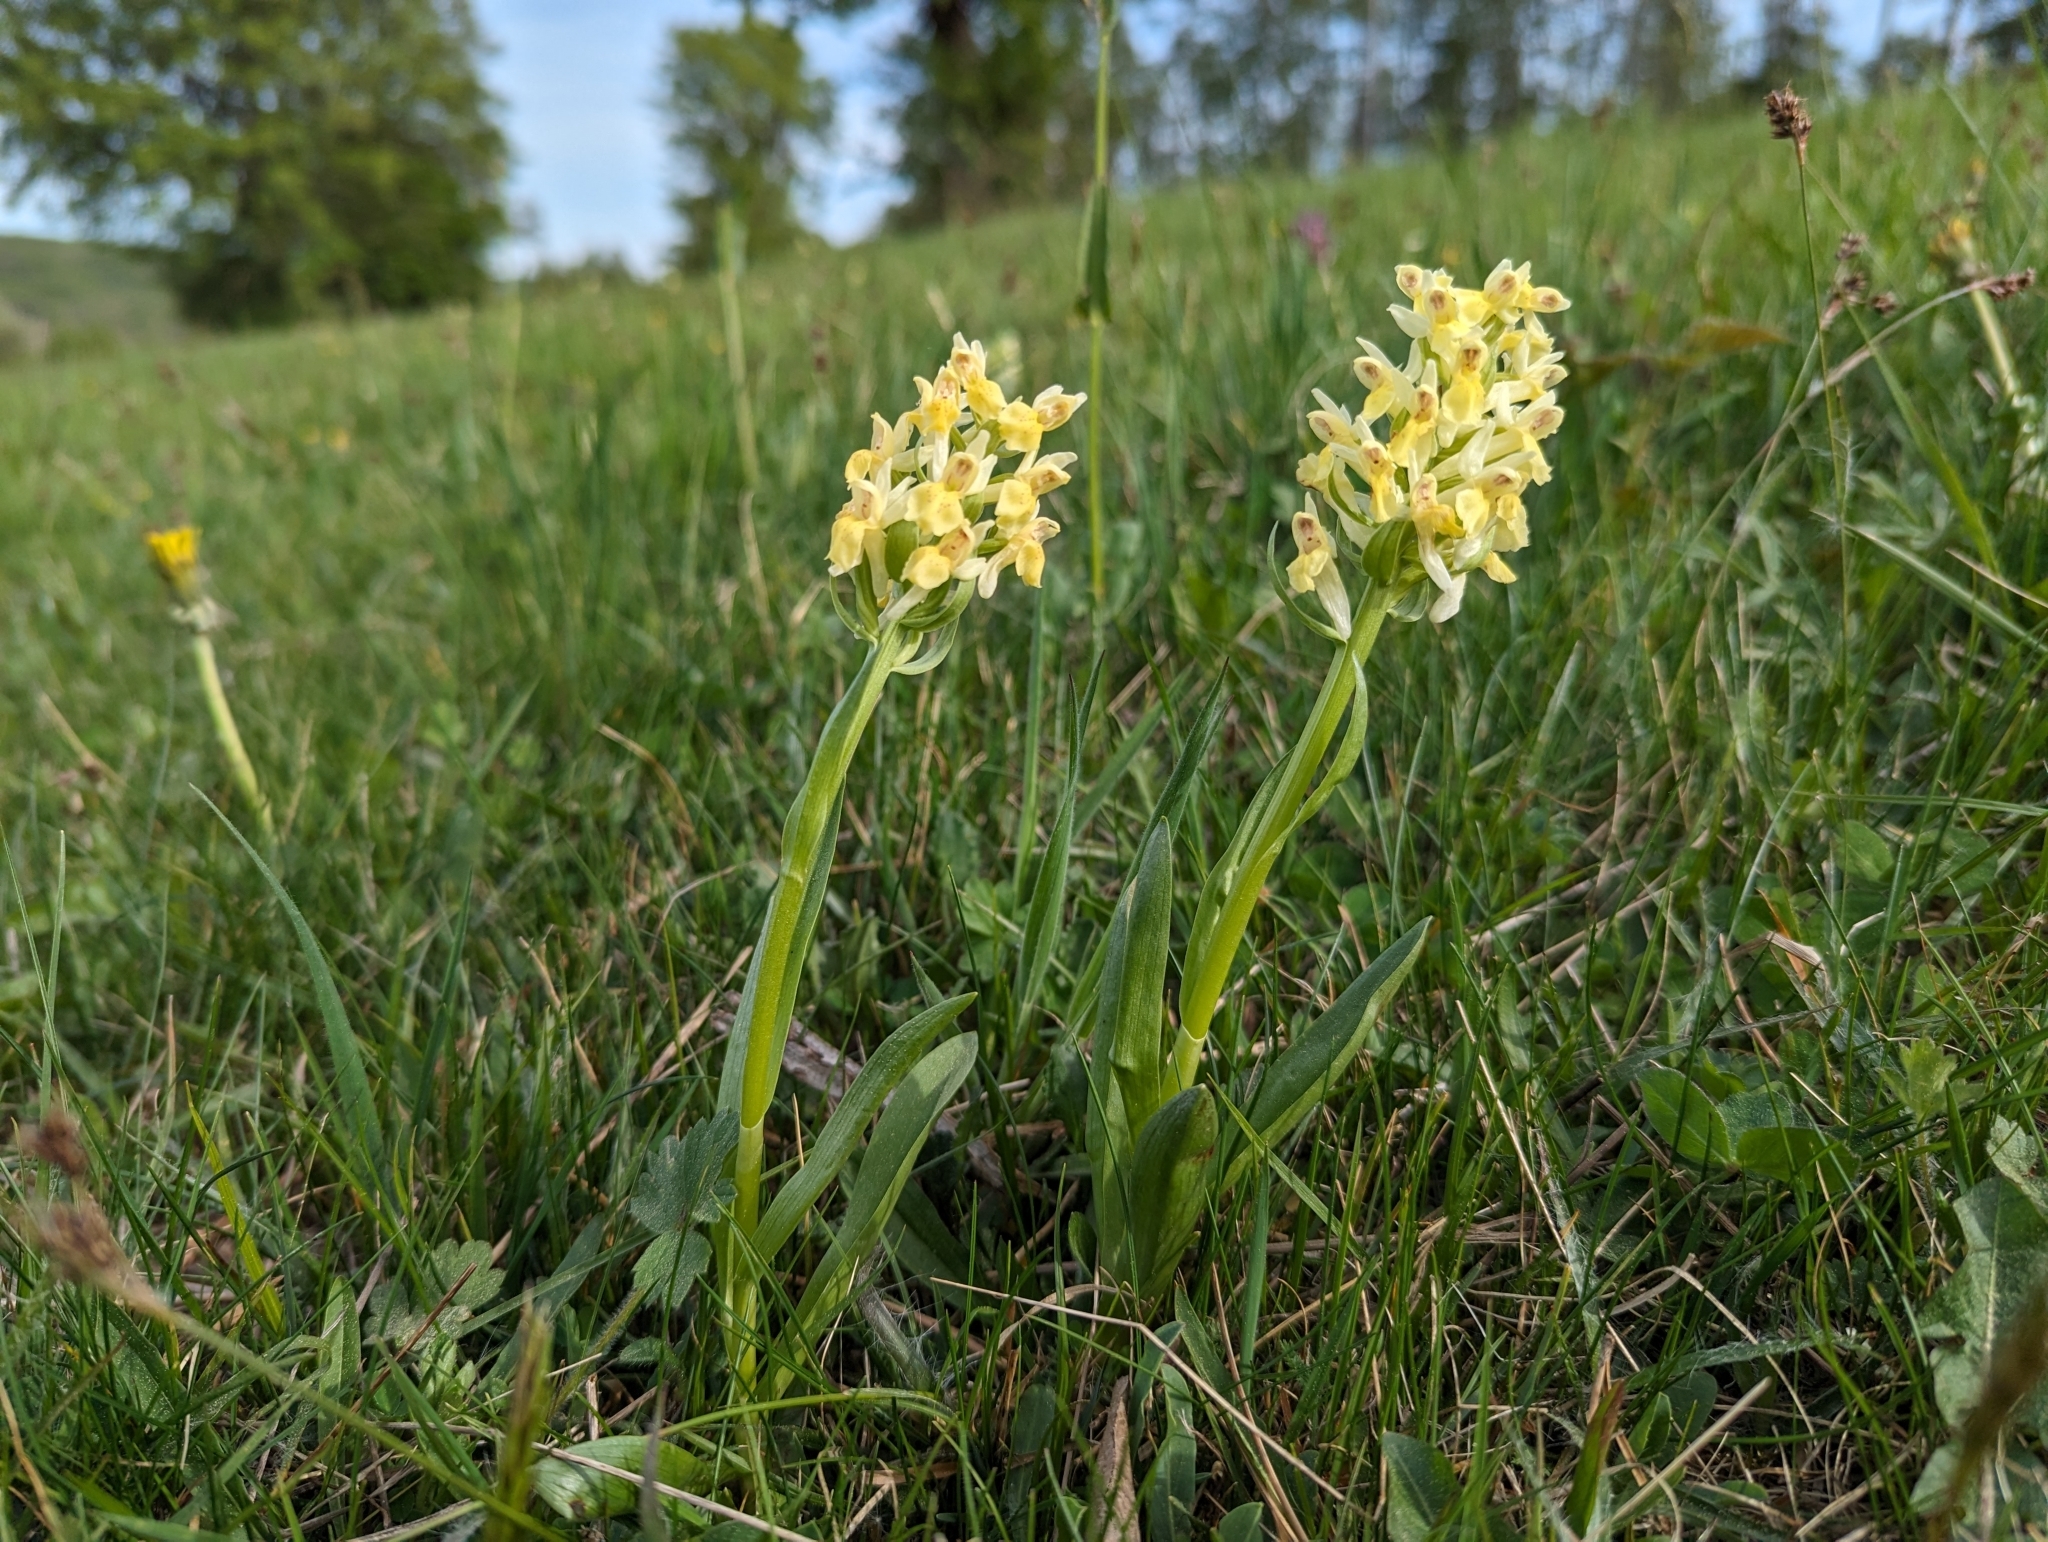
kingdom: Plantae
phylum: Tracheophyta
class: Liliopsida
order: Asparagales
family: Orchidaceae
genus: Dactylorhiza
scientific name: Dactylorhiza sambucina
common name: Elder-flowered orchid
